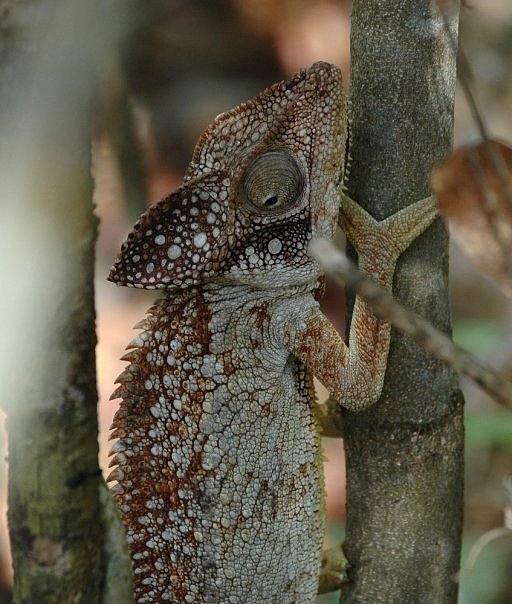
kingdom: Animalia
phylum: Chordata
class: Squamata
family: Chamaeleonidae
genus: Furcifer
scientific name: Furcifer oustaleti
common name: Oustalet's chameleon
